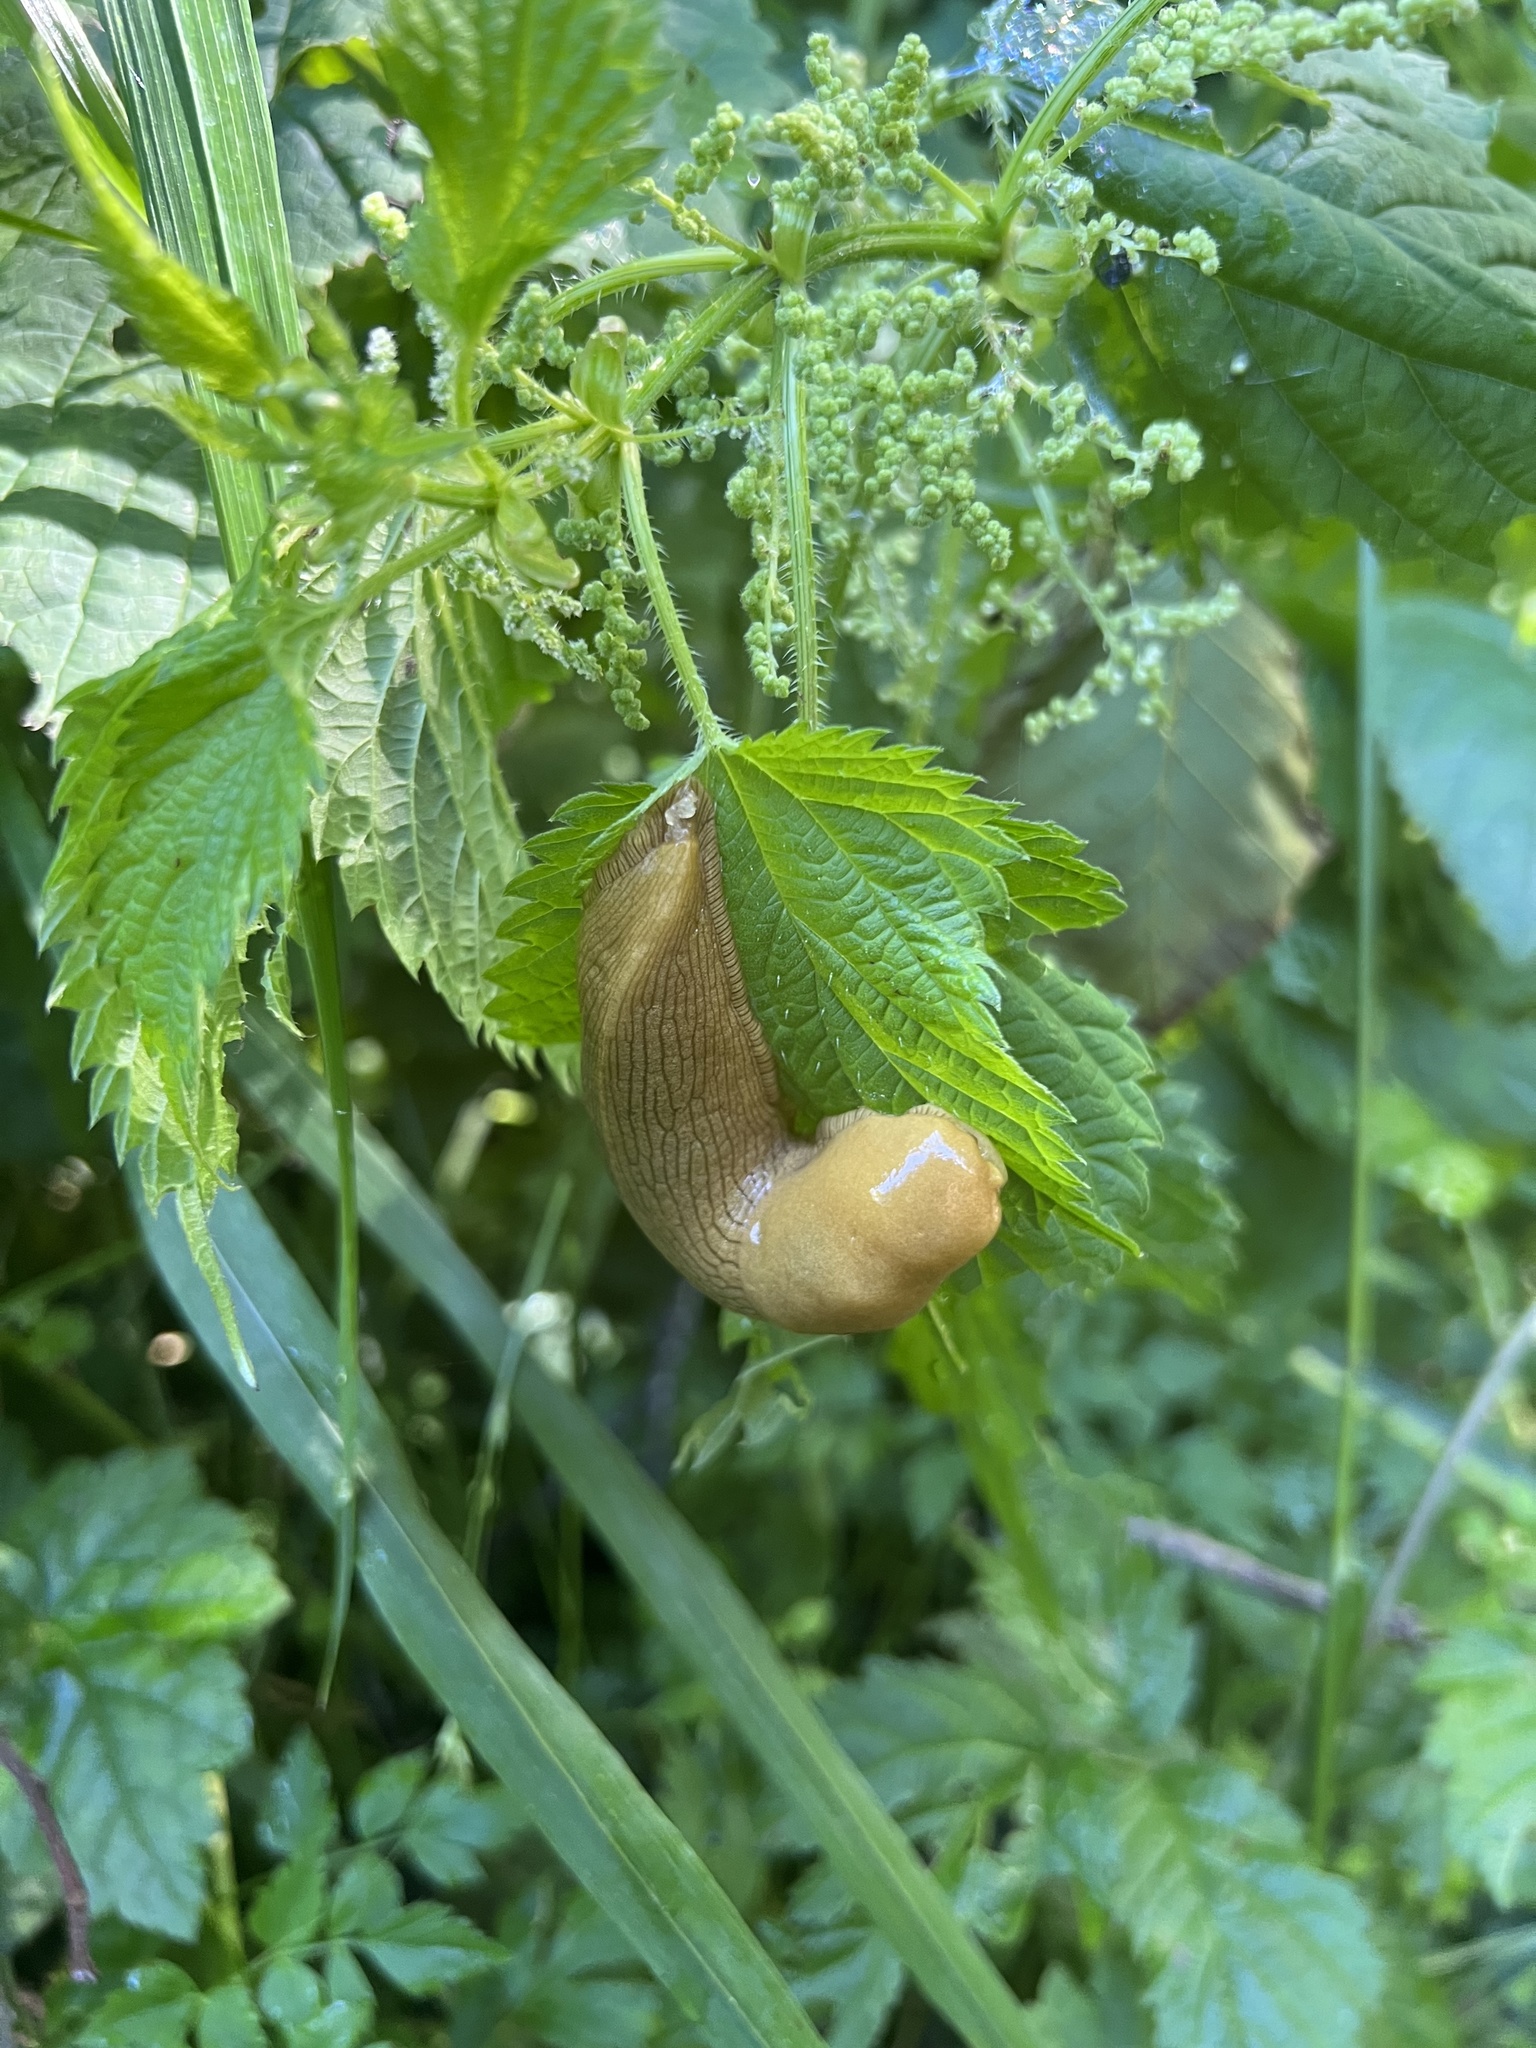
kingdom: Animalia
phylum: Mollusca
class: Gastropoda
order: Stylommatophora
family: Ariolimacidae
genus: Ariolimax
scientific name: Ariolimax columbianus
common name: Pacific banana slug
